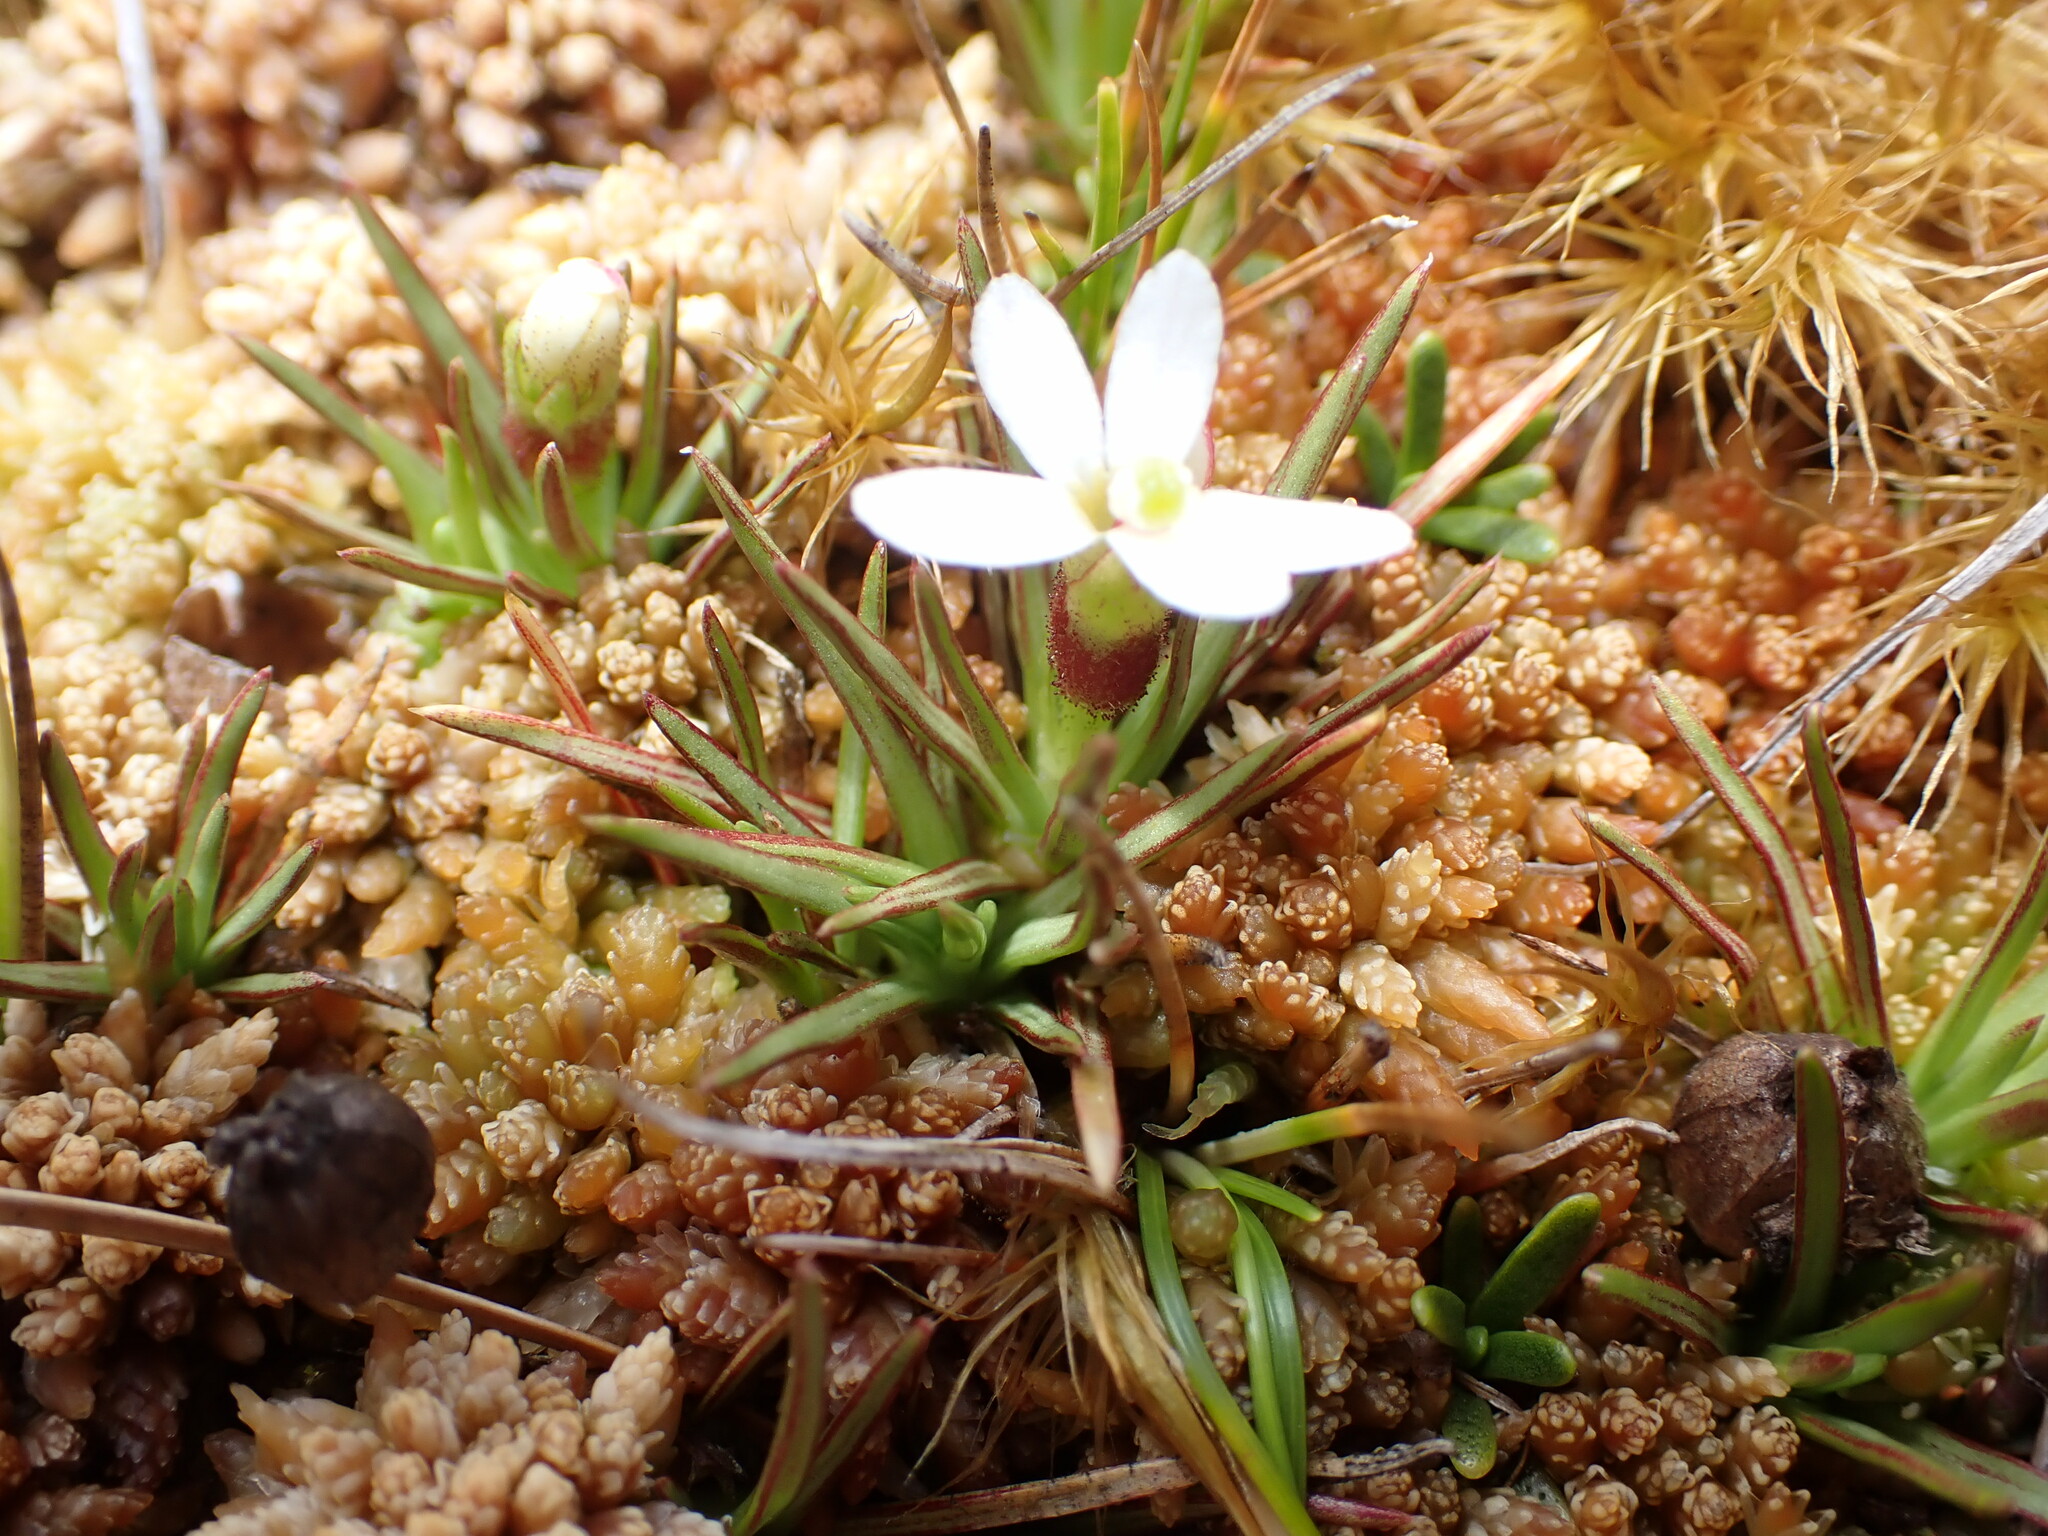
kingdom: Plantae
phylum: Tracheophyta
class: Magnoliopsida
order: Asterales
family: Stylidiaceae
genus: Oreostylidium
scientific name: Oreostylidium subulatum
